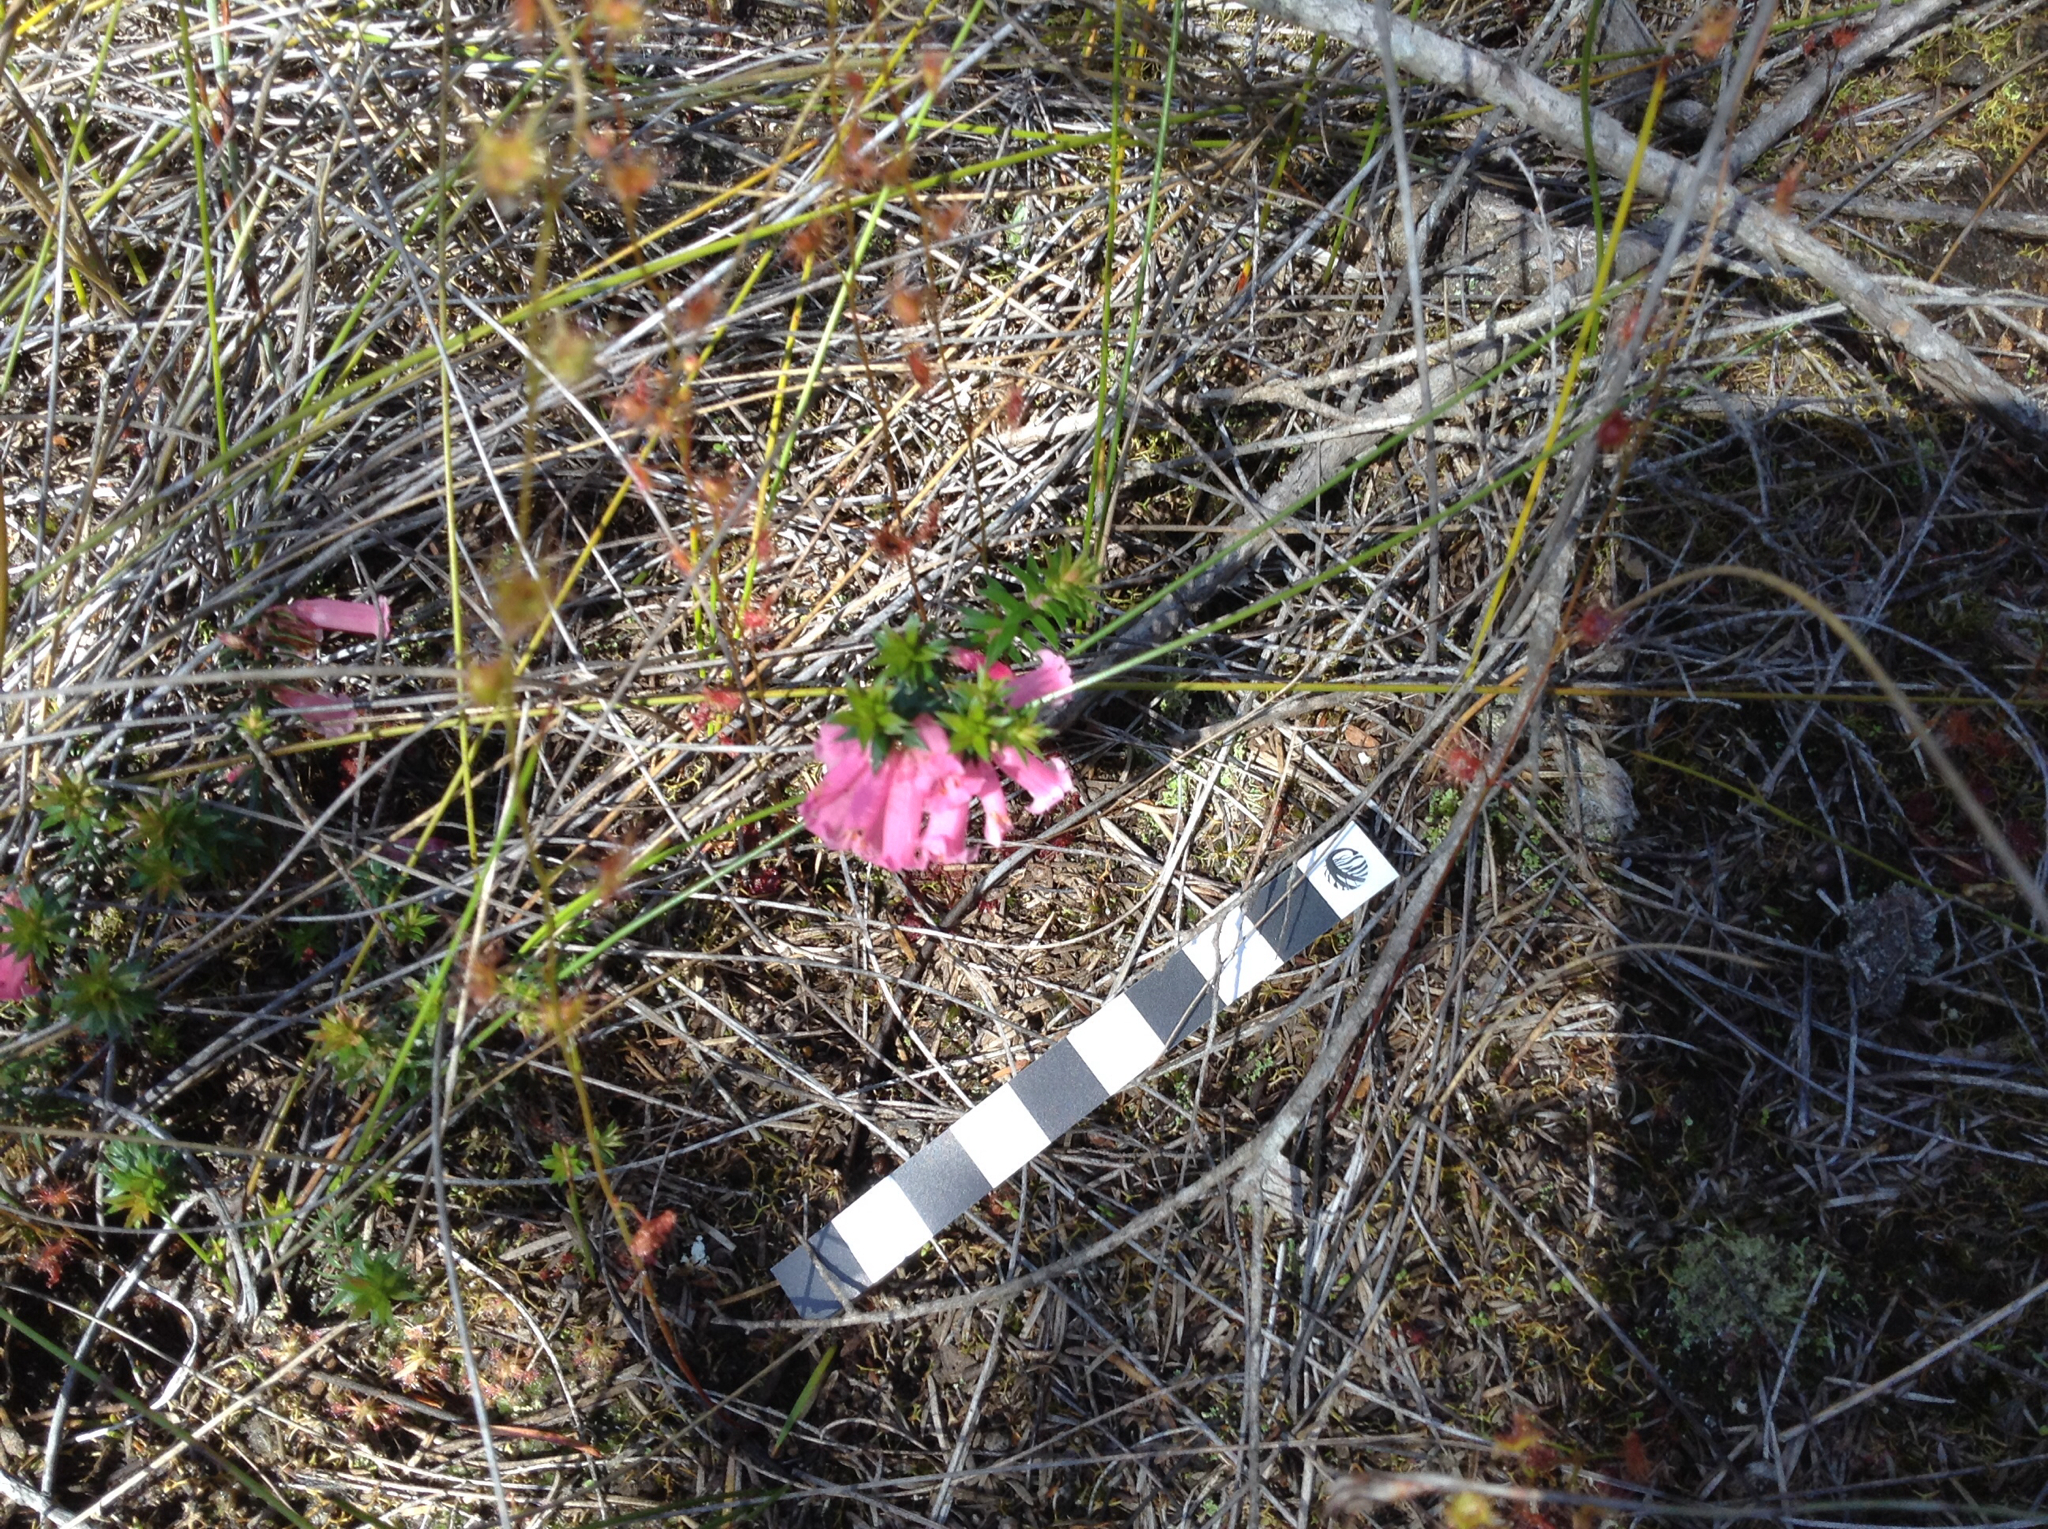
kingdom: Plantae
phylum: Tracheophyta
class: Magnoliopsida
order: Ericales
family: Ericaceae
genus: Epacris
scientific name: Epacris impressa
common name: Common-heath
